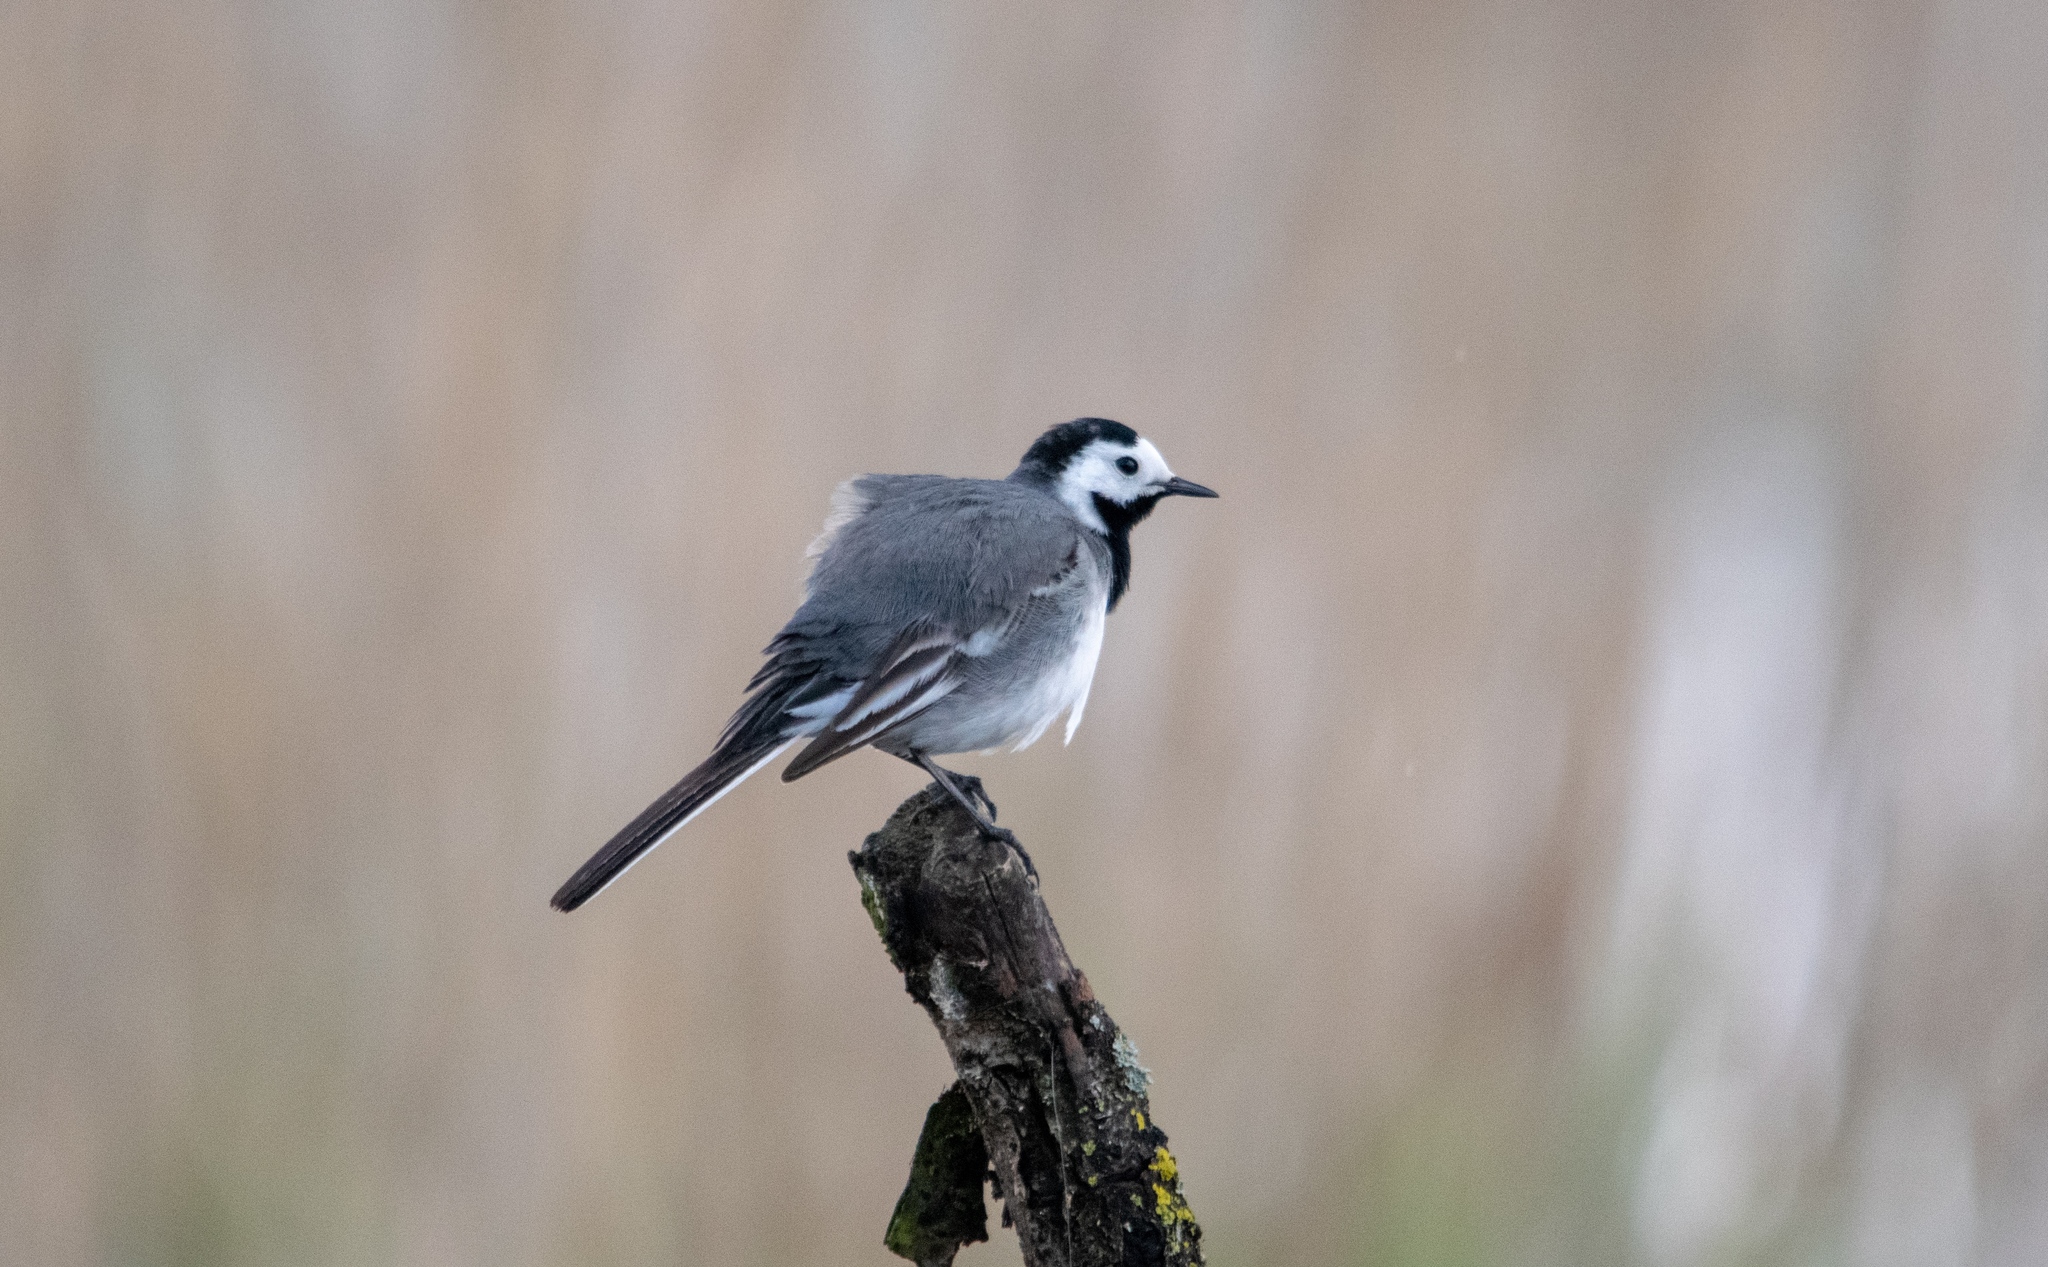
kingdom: Animalia
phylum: Chordata
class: Aves
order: Passeriformes
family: Motacillidae
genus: Motacilla
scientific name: Motacilla alba
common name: White wagtail
